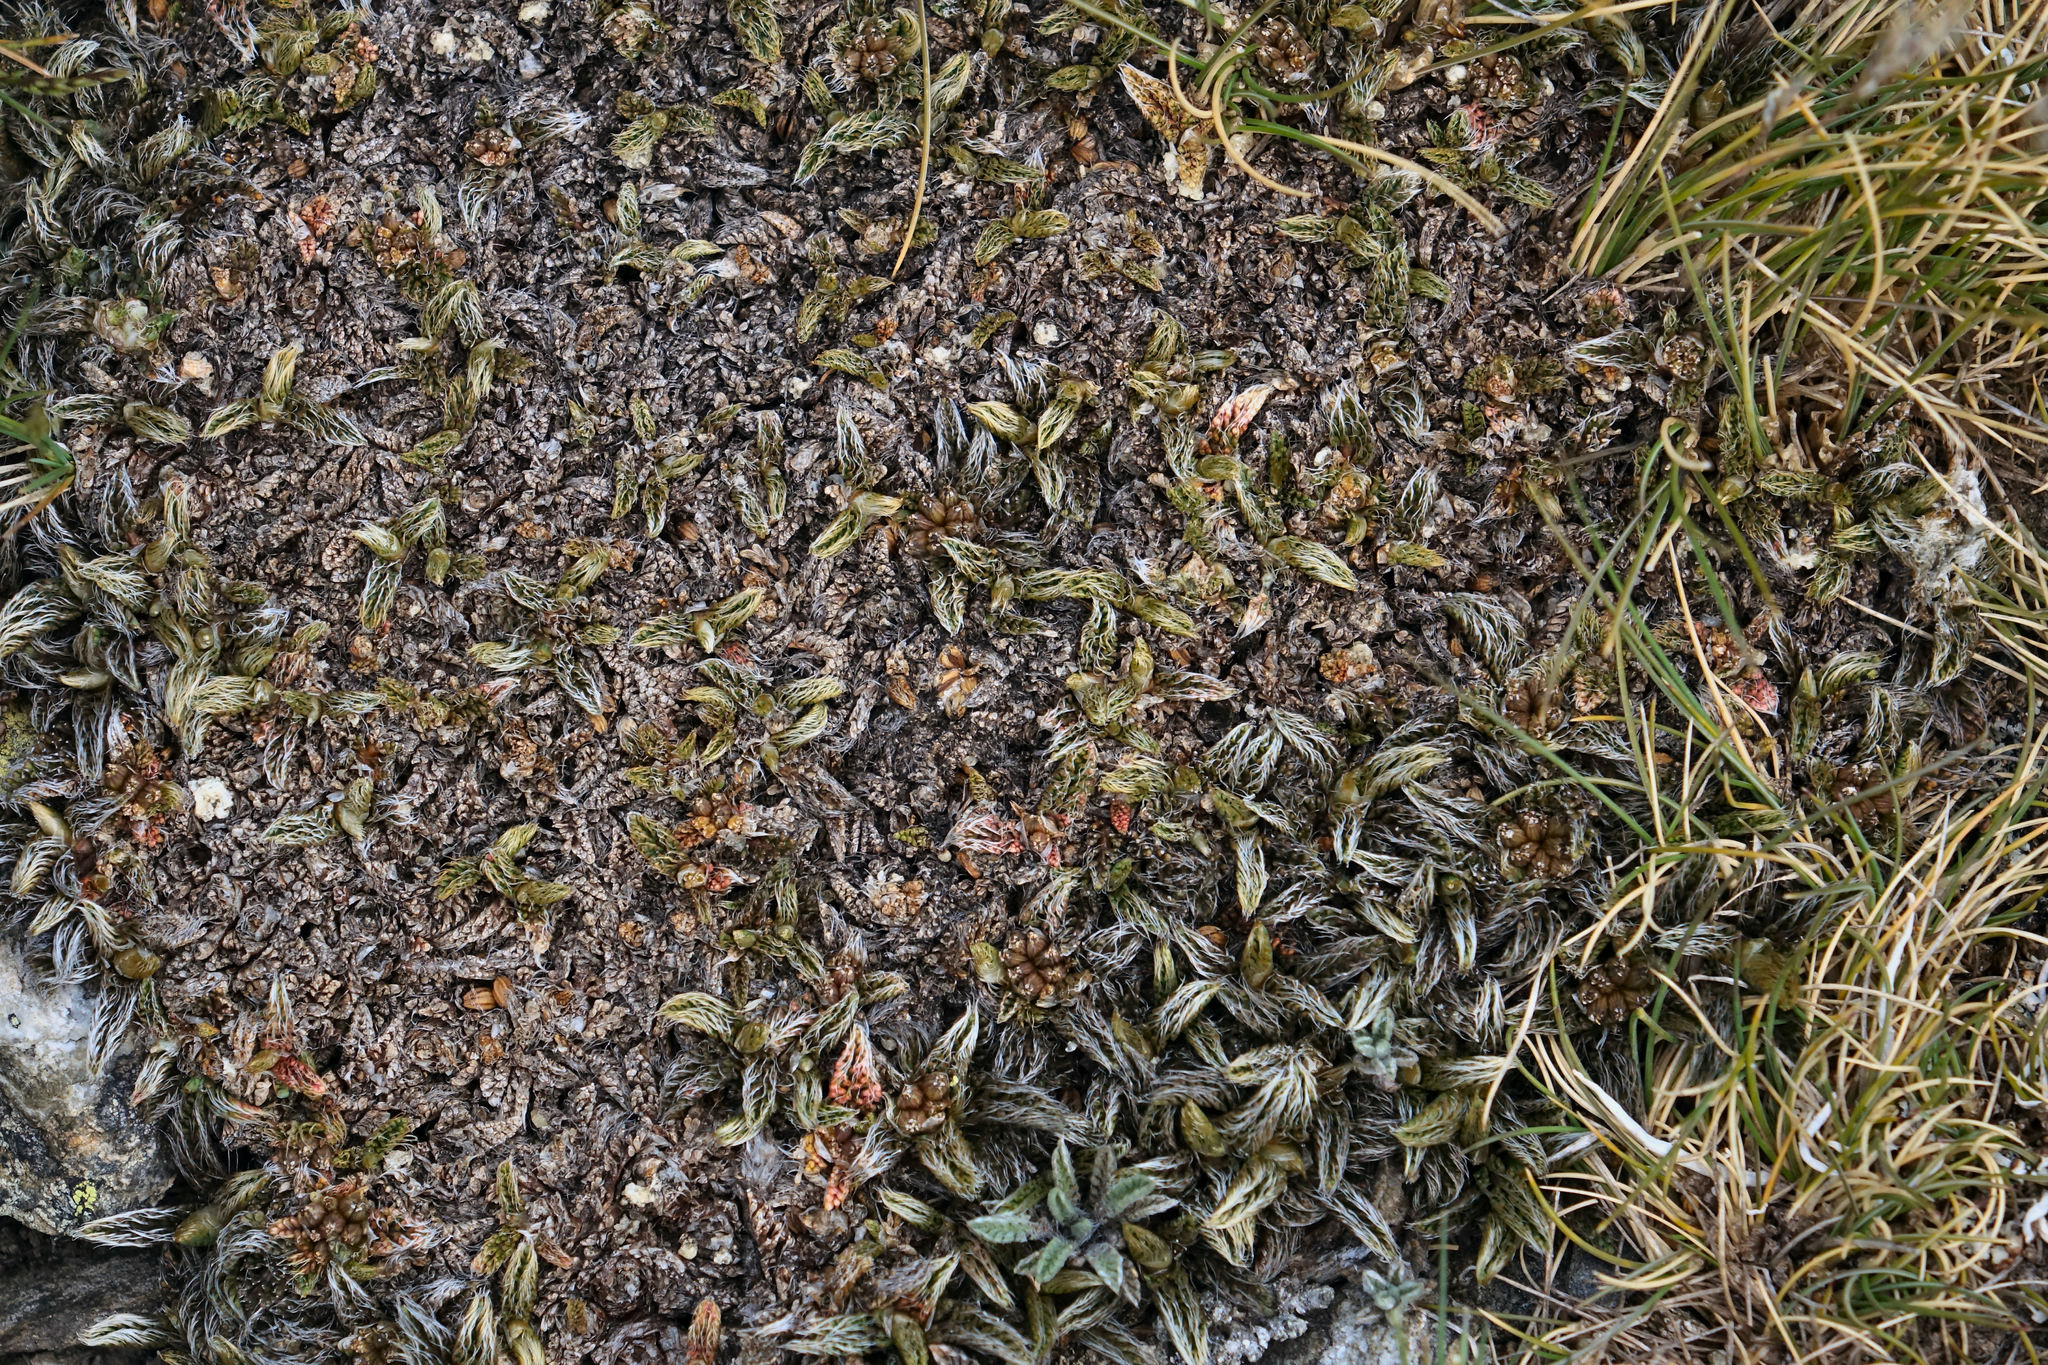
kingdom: Plantae
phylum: Tracheophyta
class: Magnoliopsida
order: Apiales
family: Apiaceae
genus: Anisotome
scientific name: Anisotome imbricata
